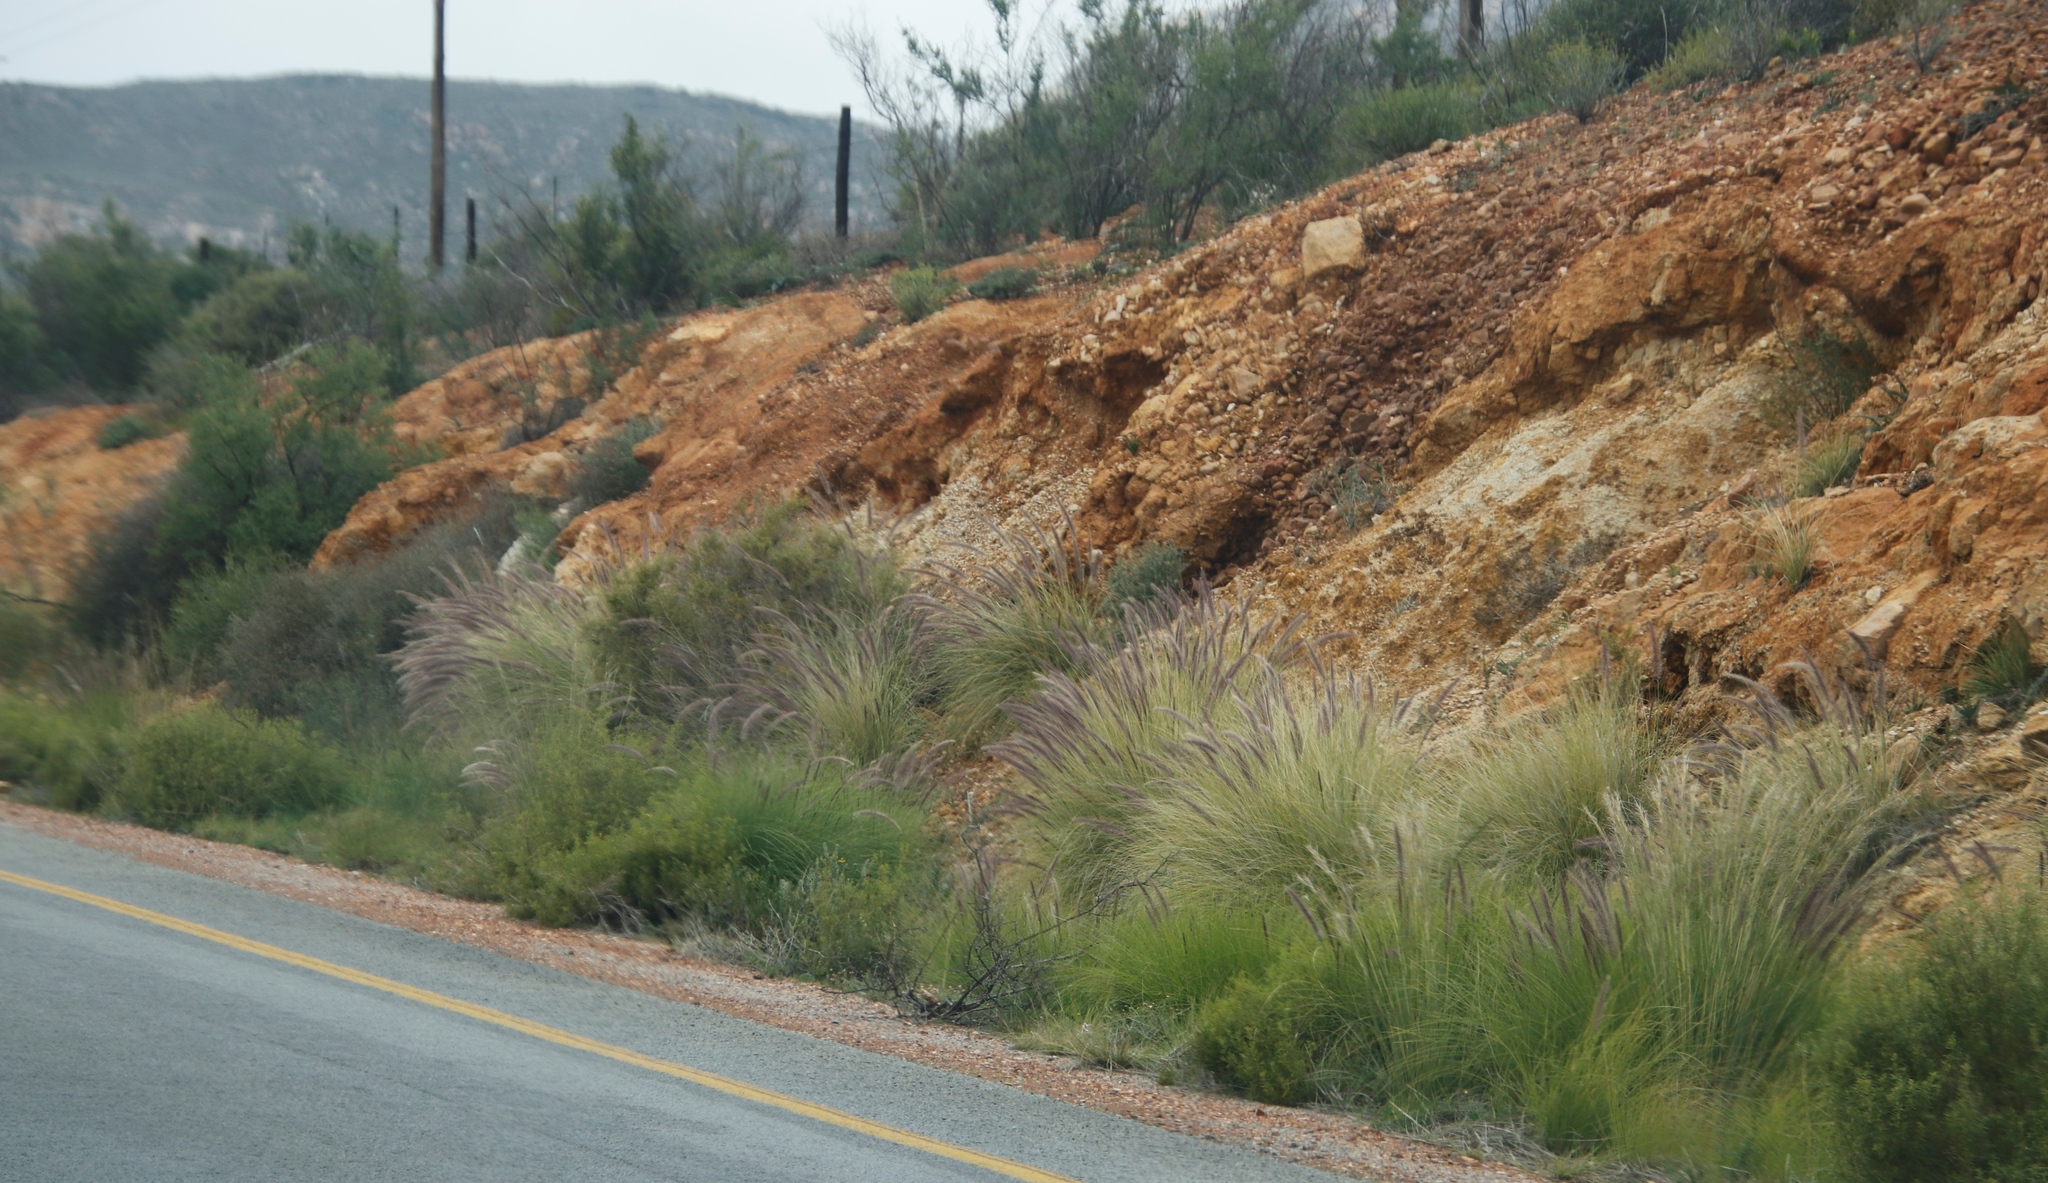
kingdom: Plantae
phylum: Tracheophyta
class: Liliopsida
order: Poales
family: Poaceae
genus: Cenchrus
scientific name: Cenchrus setaceus
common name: Crimson fountaingrass
